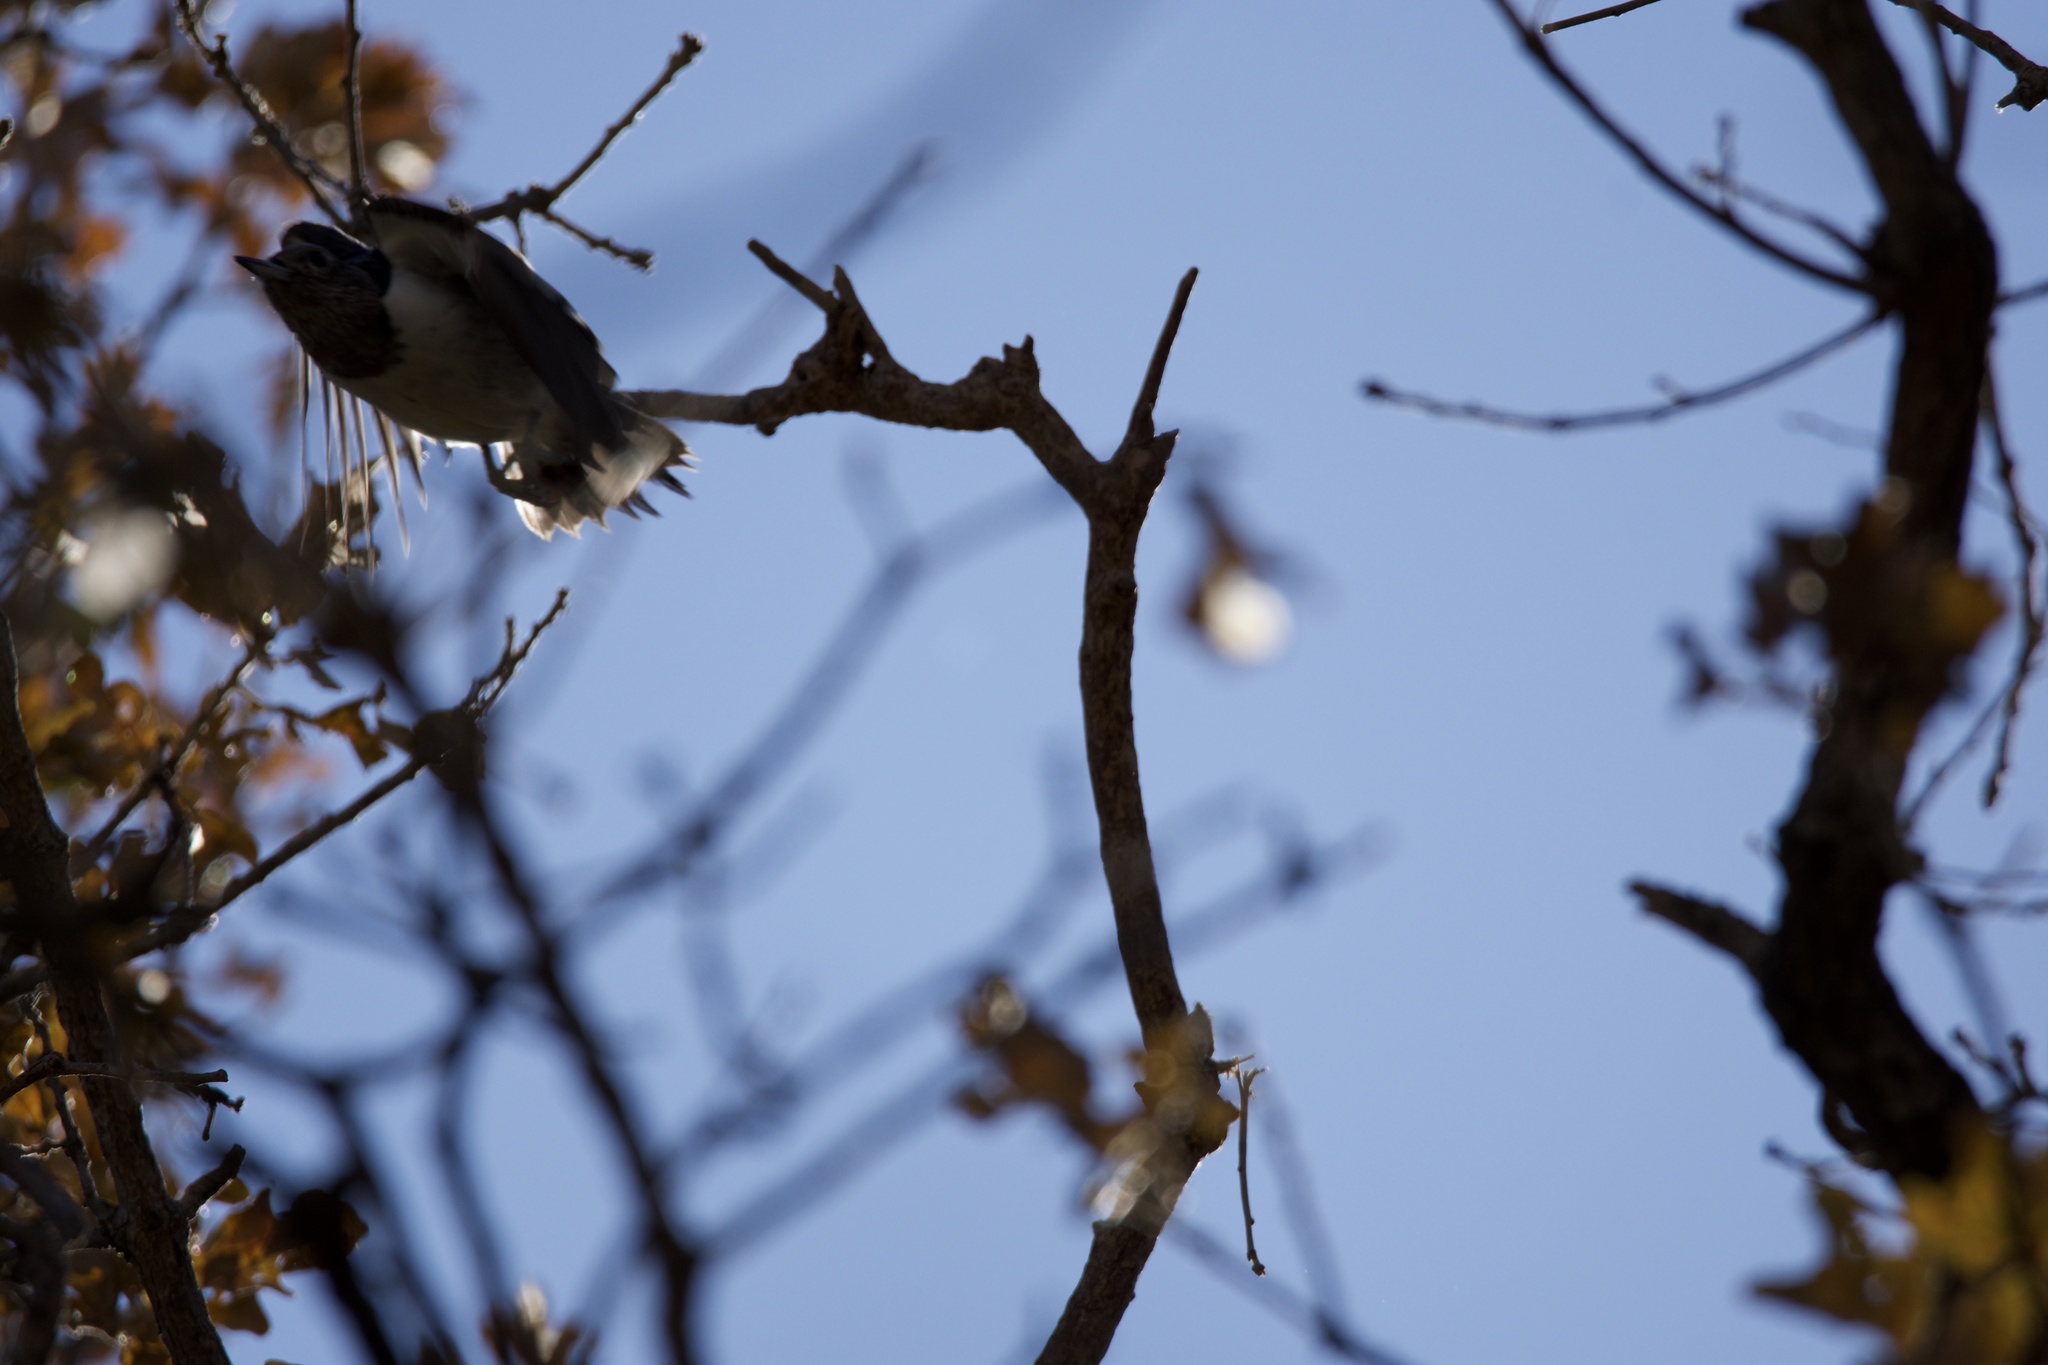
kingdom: Animalia
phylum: Chordata
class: Aves
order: Piciformes
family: Picidae
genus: Melanerpes
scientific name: Melanerpes erythrocephalus
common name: Red-headed woodpecker
